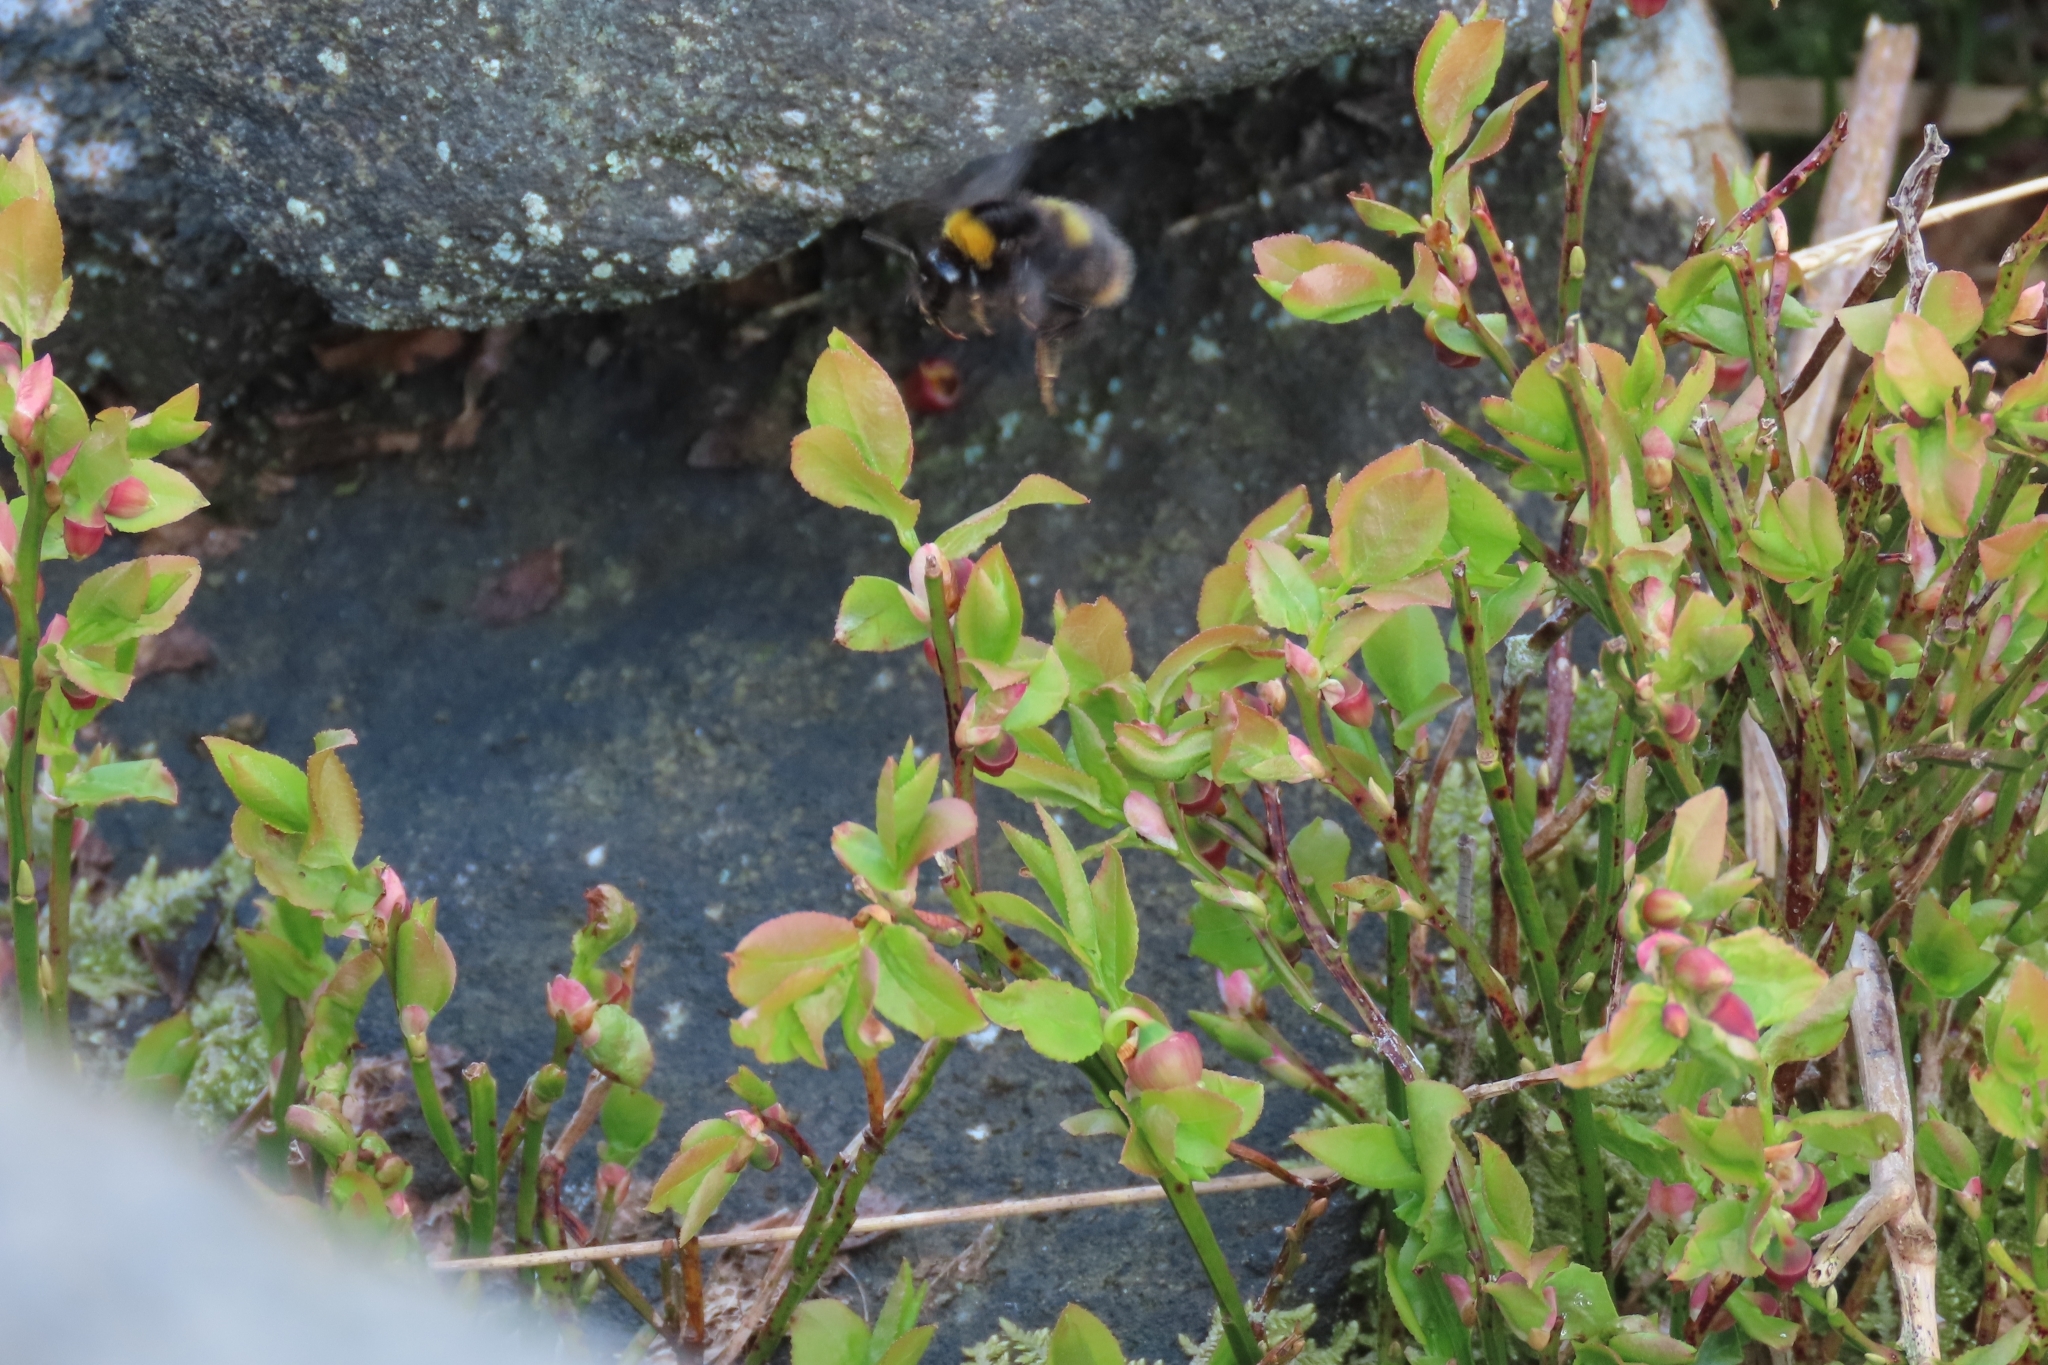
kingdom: Animalia
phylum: Arthropoda
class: Insecta
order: Hymenoptera
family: Apidae
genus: Bombus
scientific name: Bombus pratorum
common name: Early humble-bee
